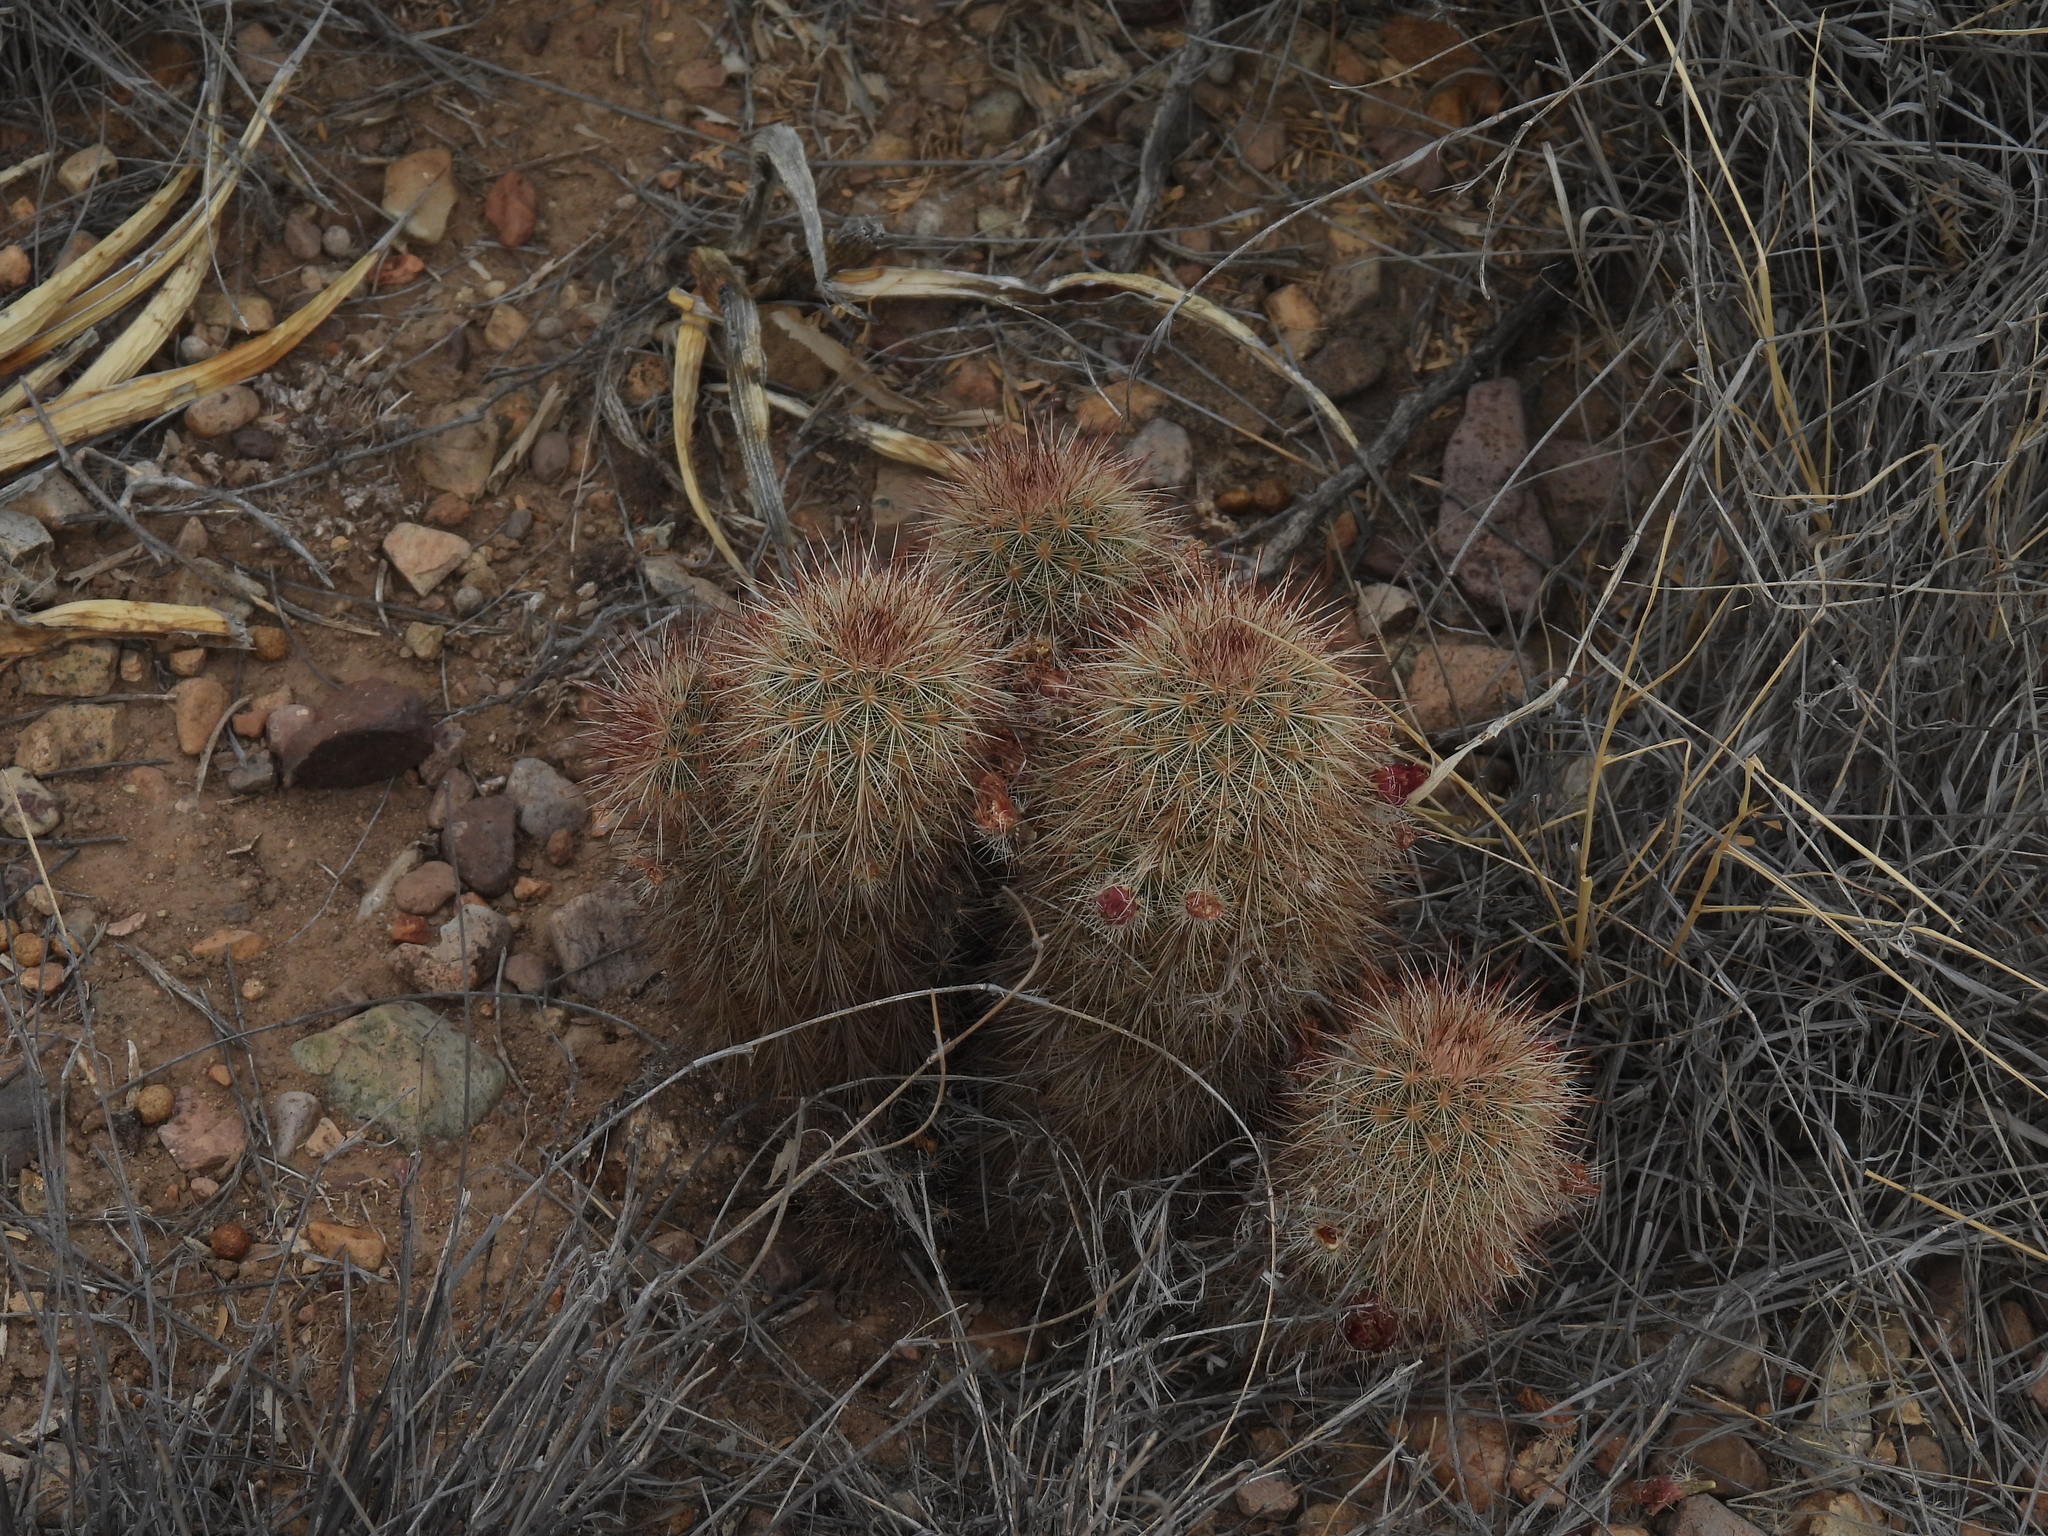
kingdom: Plantae
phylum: Tracheophyta
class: Magnoliopsida
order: Caryophyllales
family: Cactaceae
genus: Echinocereus
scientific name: Echinocereus russanthus
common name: Brownspine hedgehog cactus
